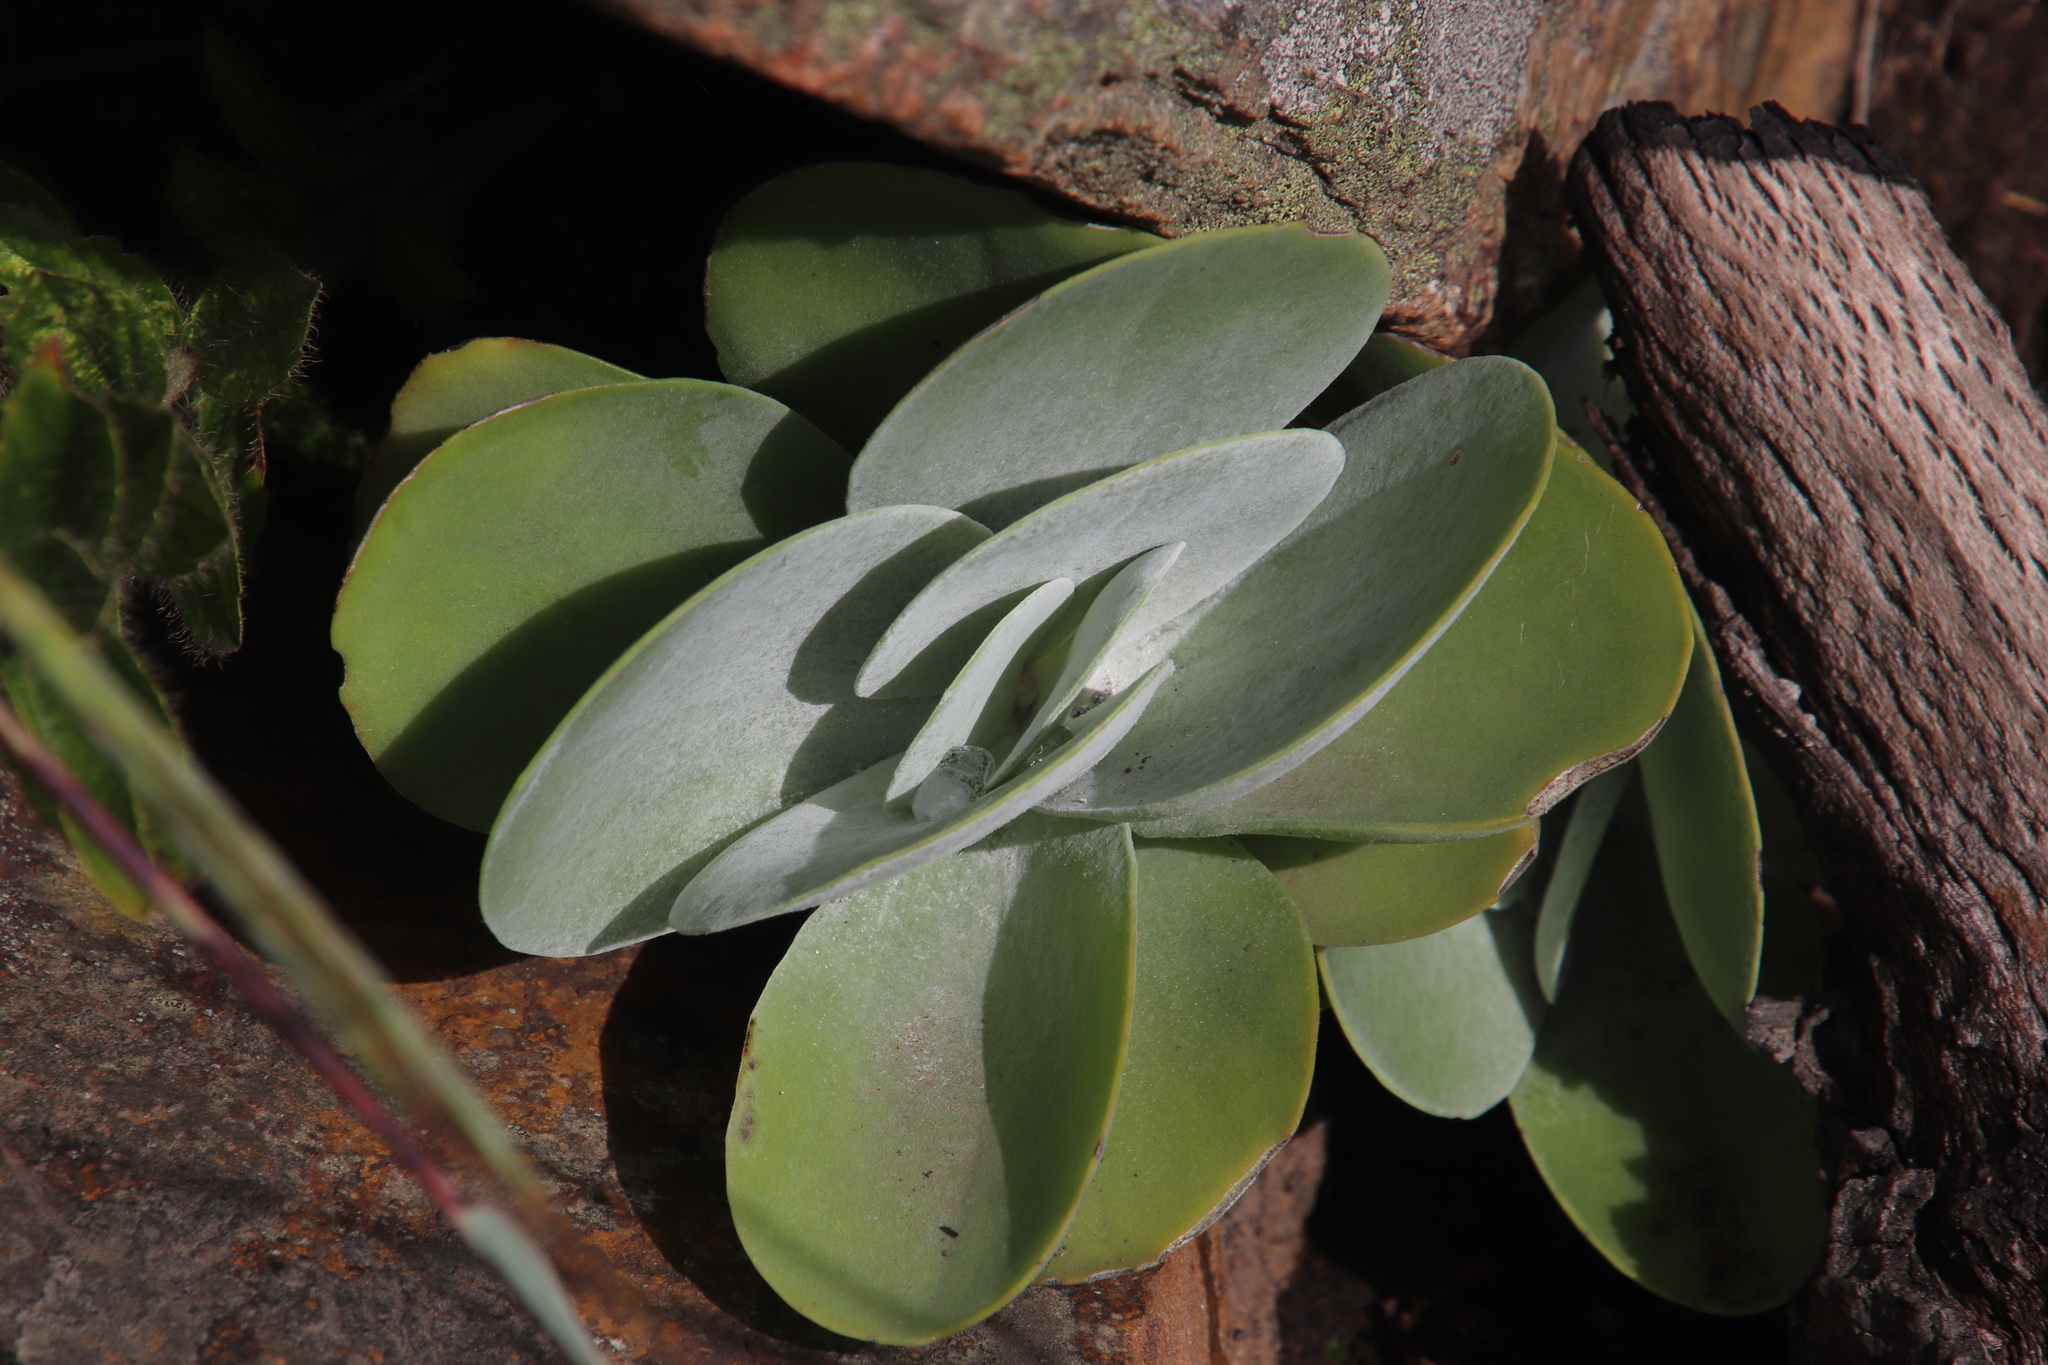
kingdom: Plantae
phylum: Tracheophyta
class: Magnoliopsida
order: Saxifragales
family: Crassulaceae
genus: Kalanchoe
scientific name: Kalanchoe luciae
